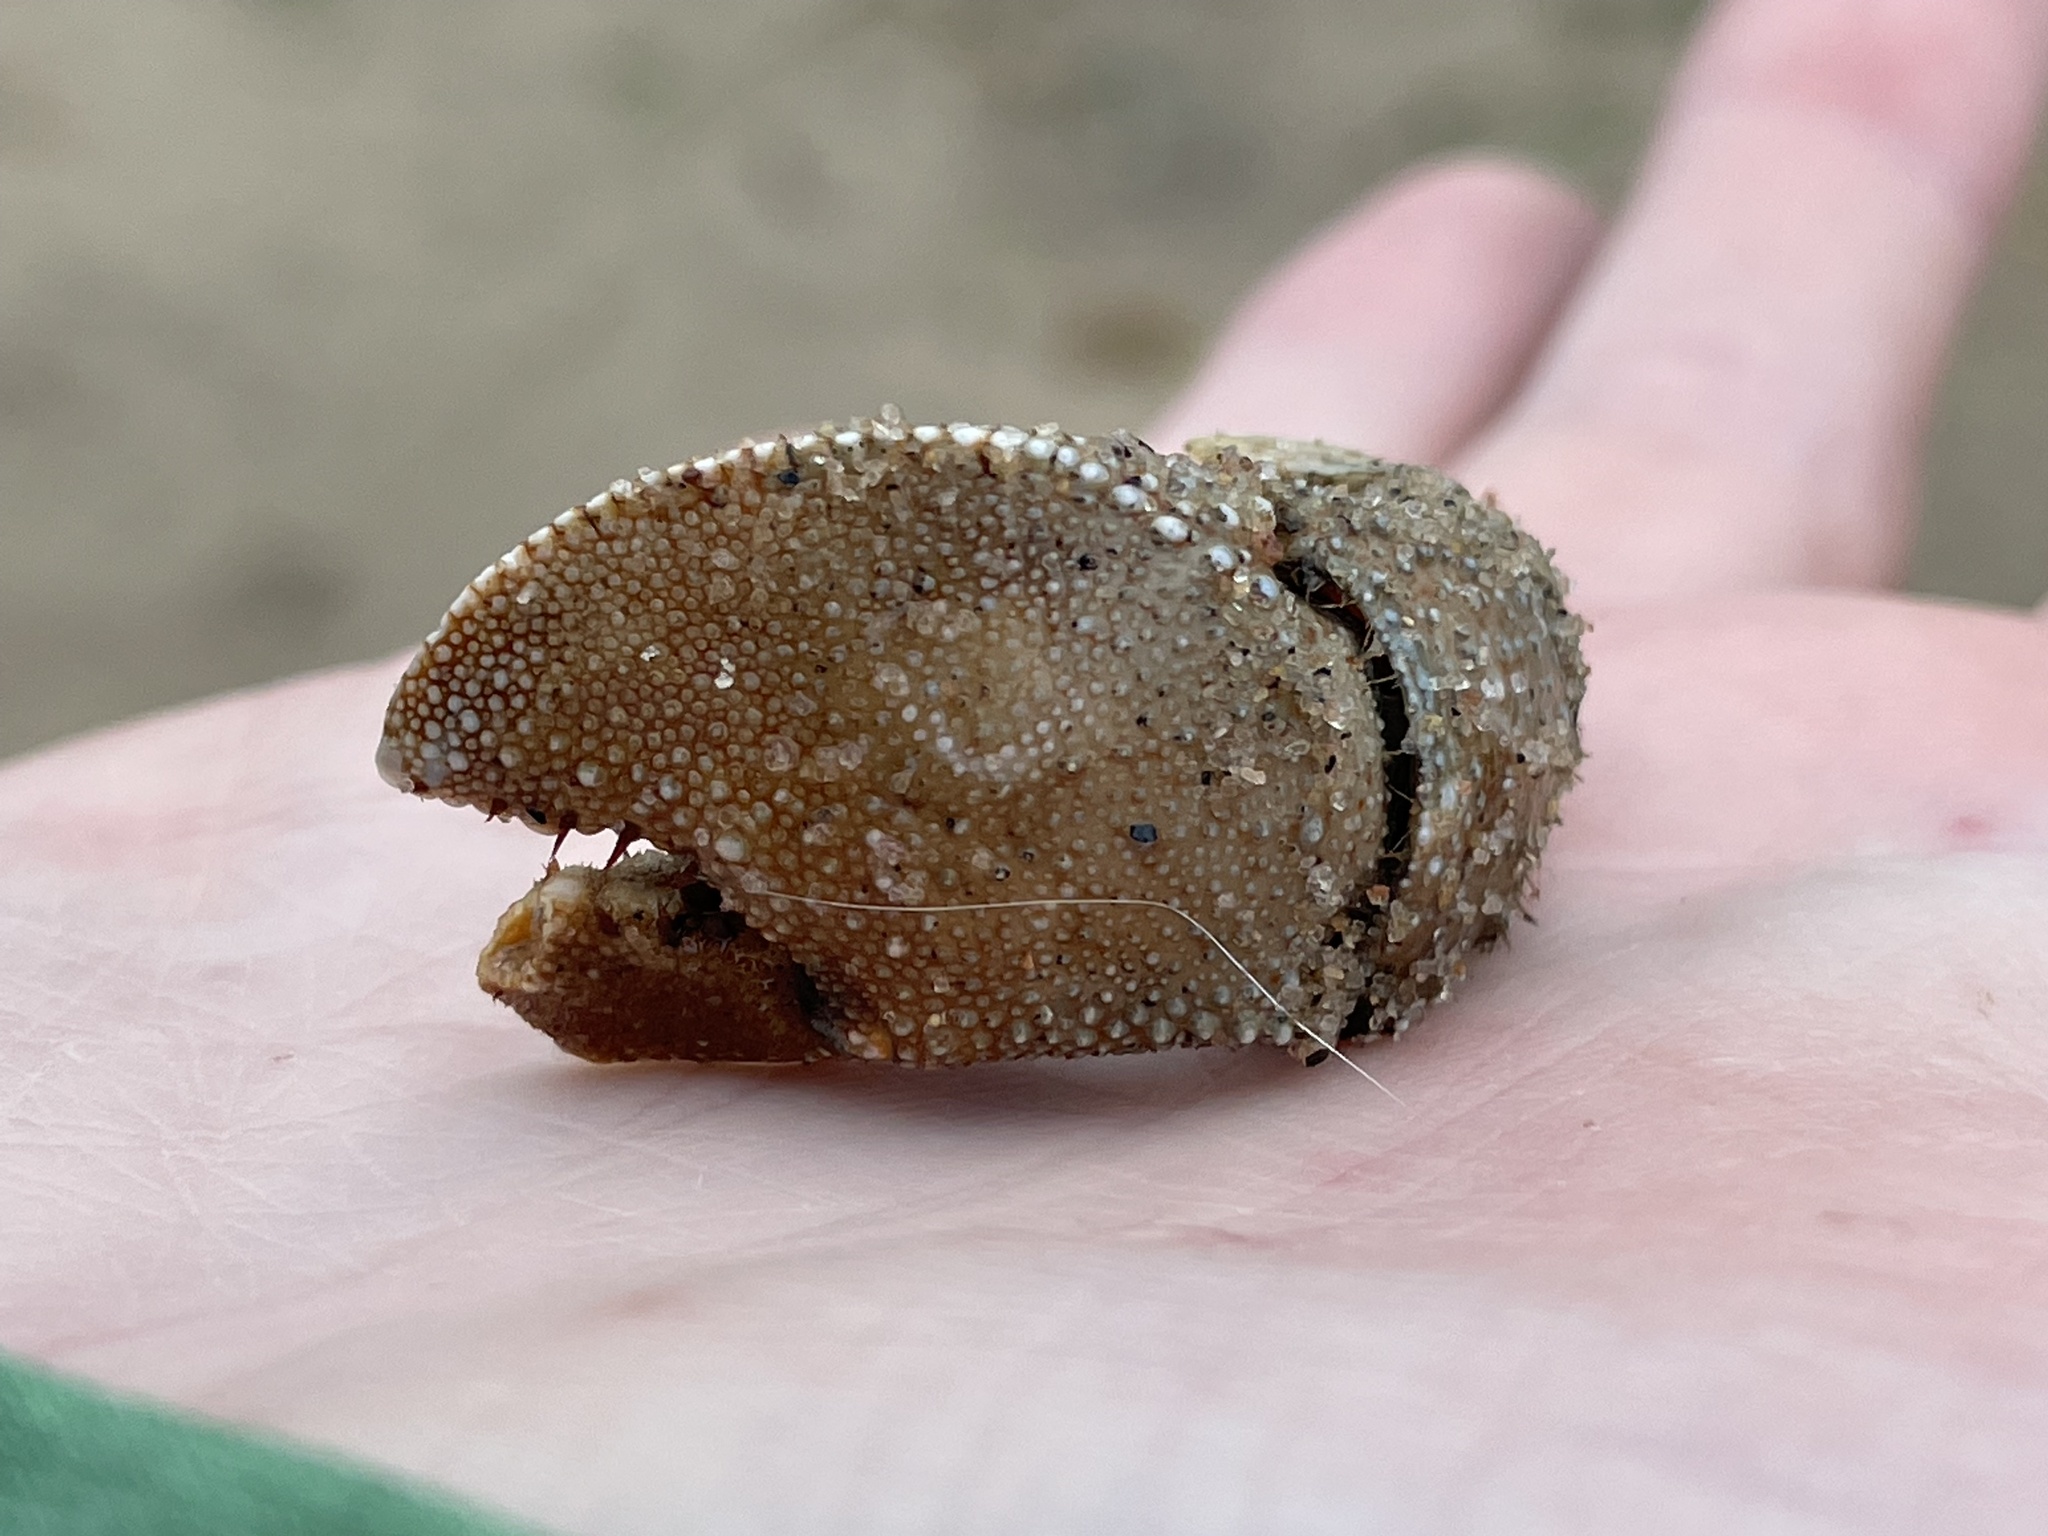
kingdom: Animalia
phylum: Arthropoda
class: Malacostraca
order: Decapoda
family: Paguridae
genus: Pagurus
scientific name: Pagurus pollicaris
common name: Flatclaw hermit
